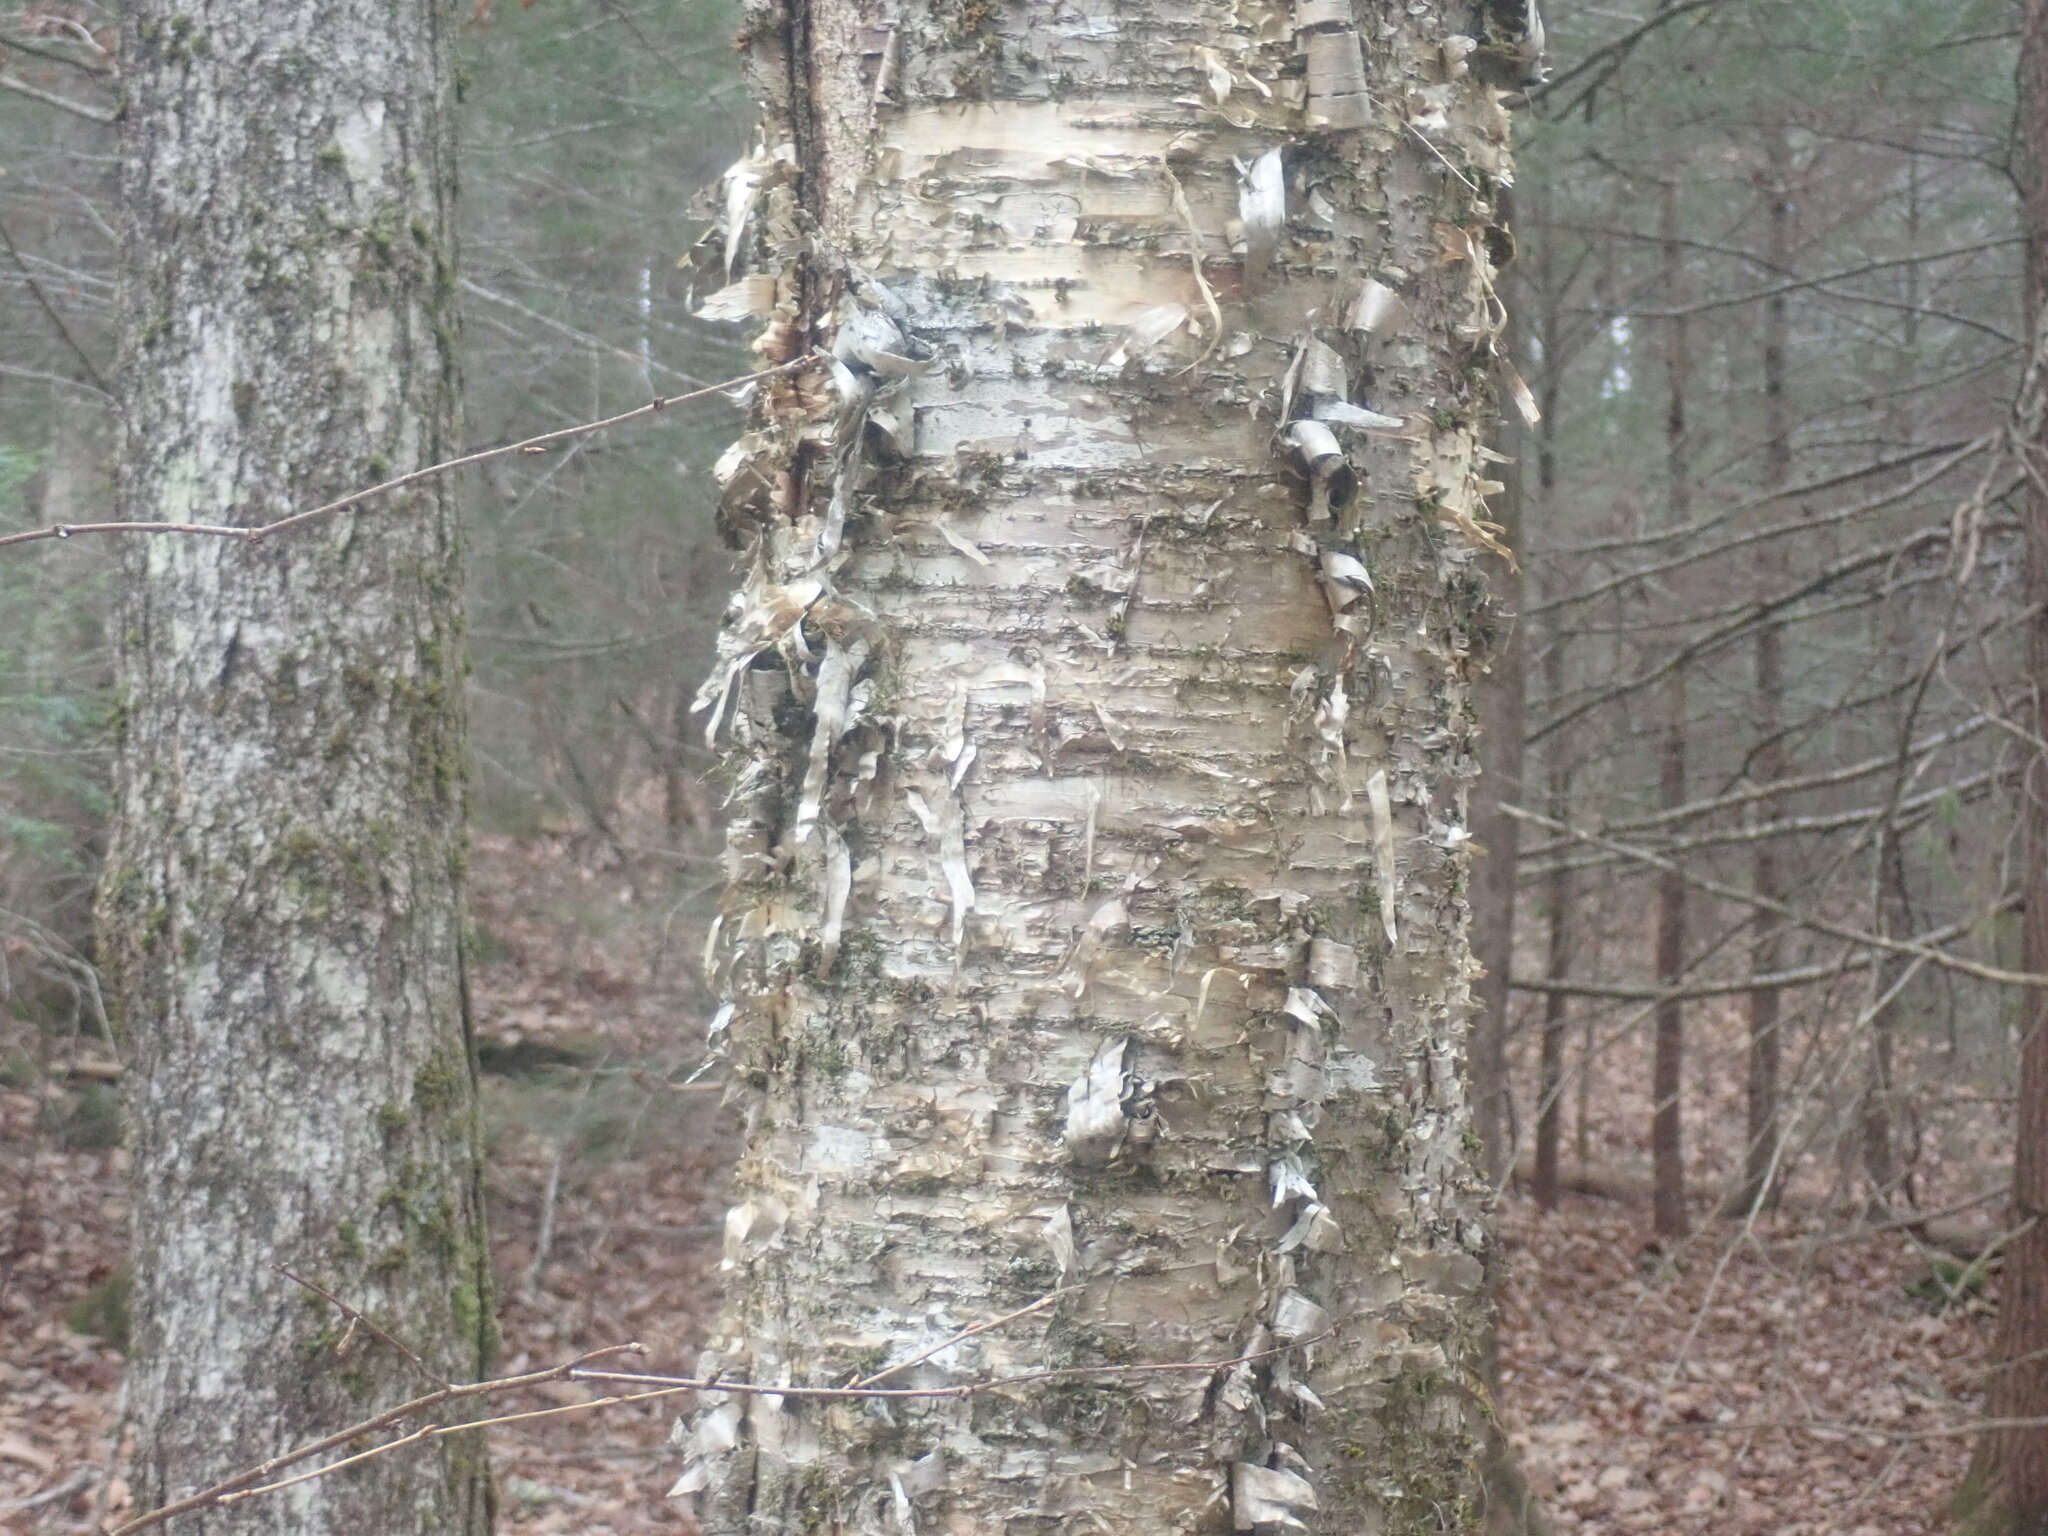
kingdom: Plantae
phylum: Tracheophyta
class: Magnoliopsida
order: Fagales
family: Betulaceae
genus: Betula
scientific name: Betula alleghaniensis
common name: Yellow birch
